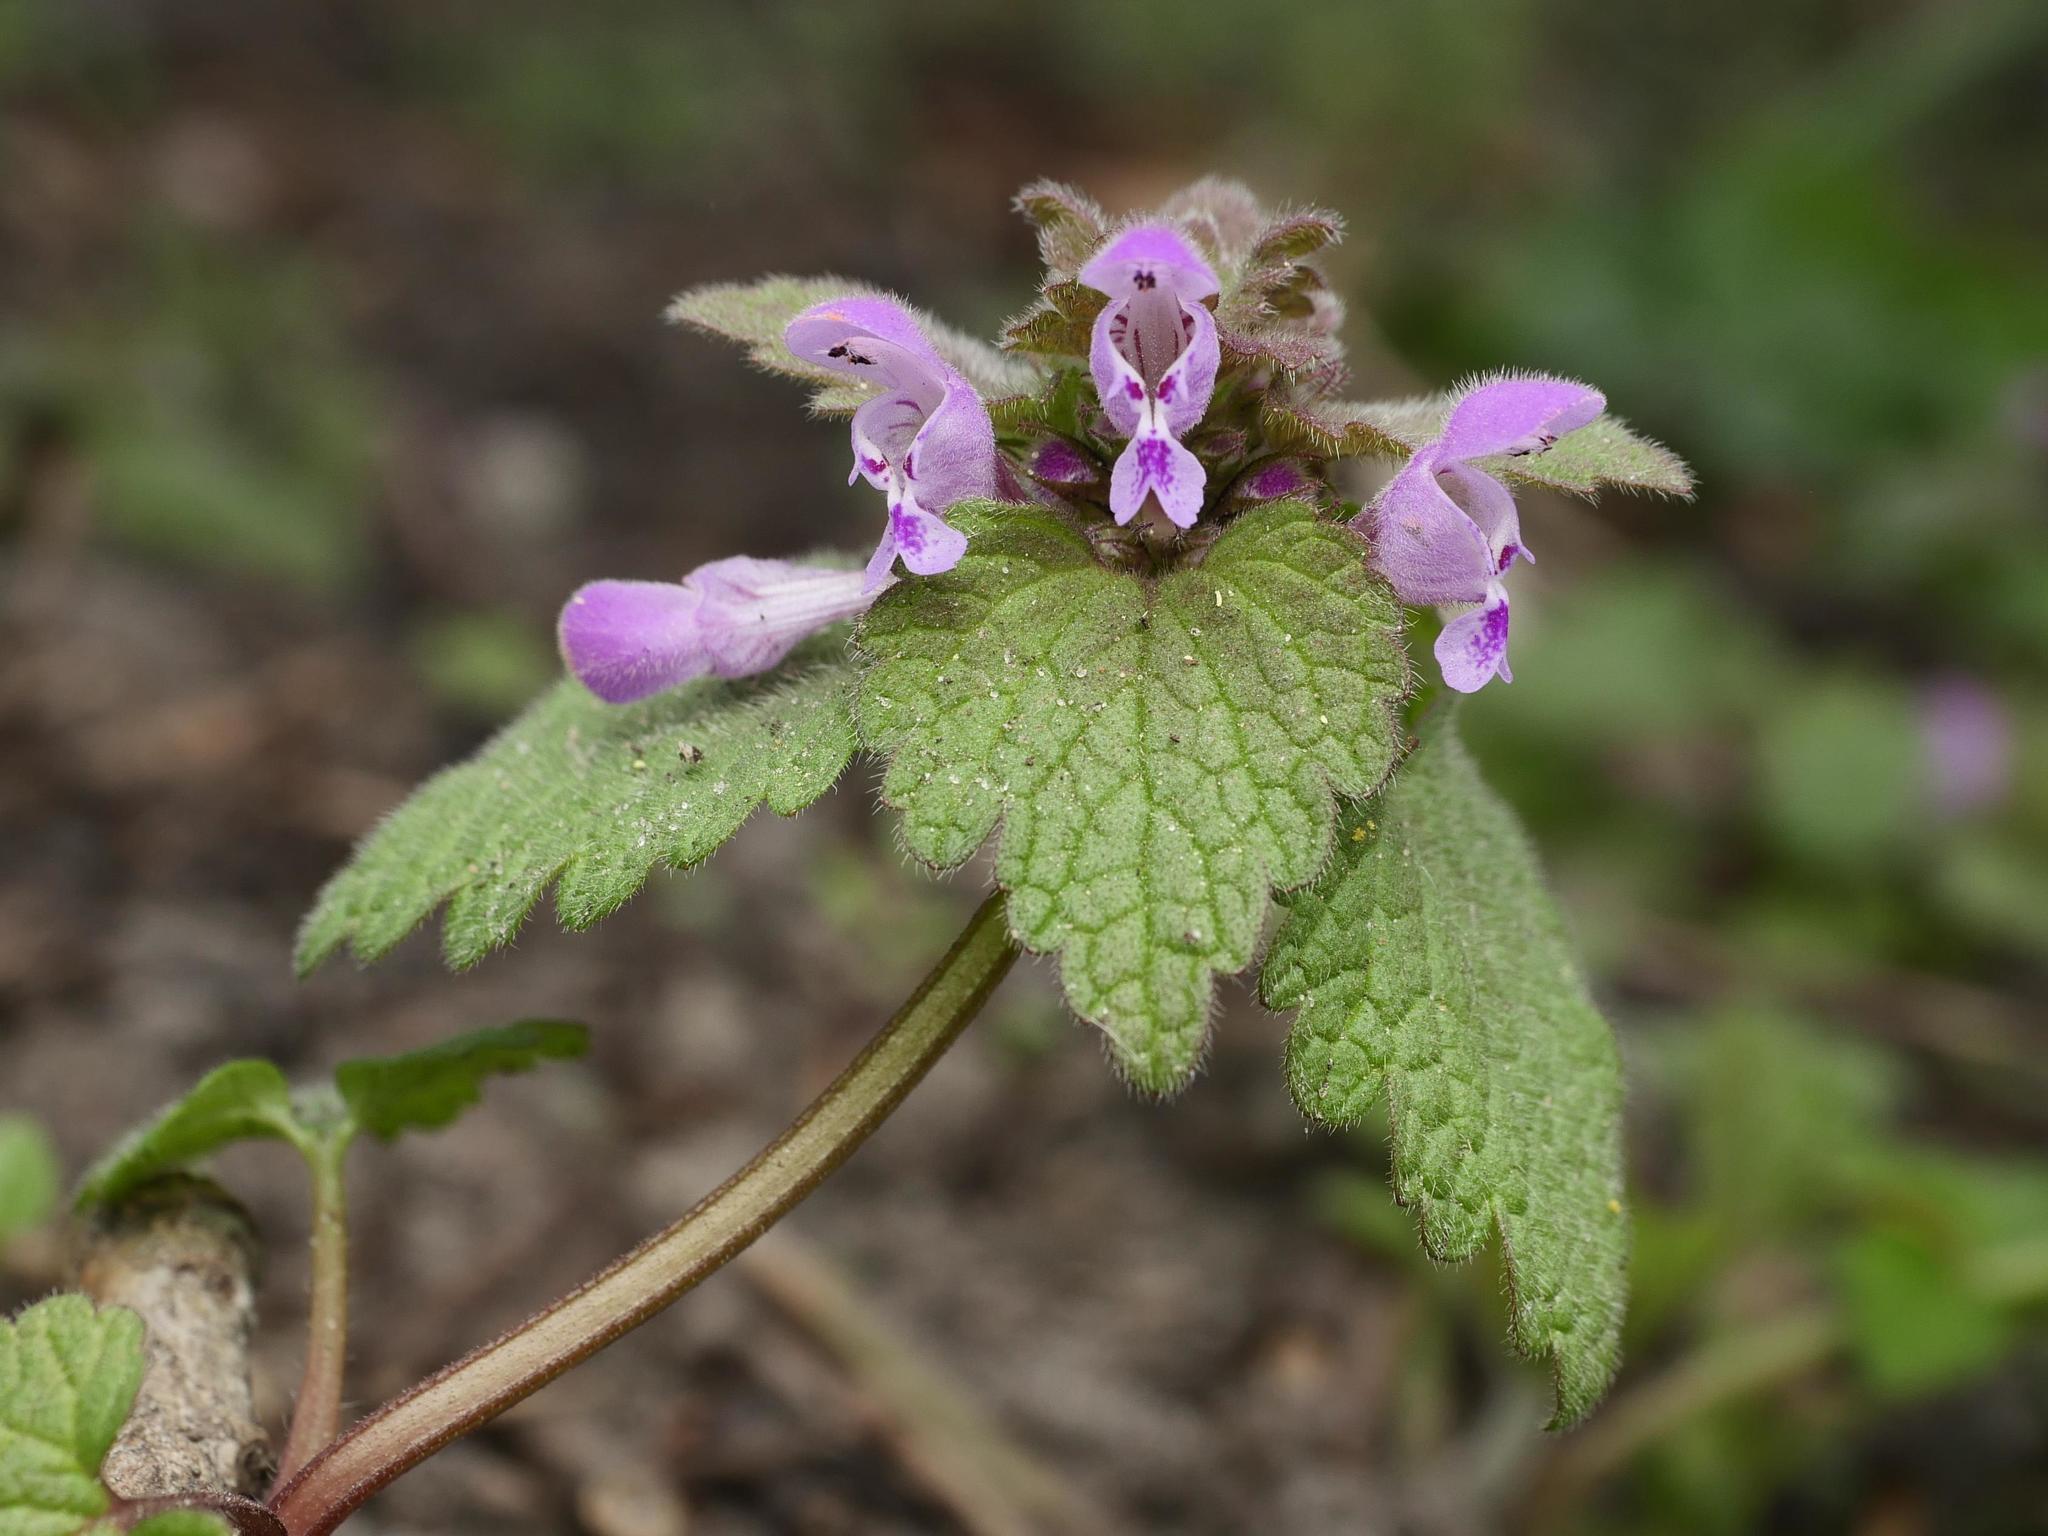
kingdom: Plantae
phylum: Tracheophyta
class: Magnoliopsida
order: Lamiales
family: Lamiaceae
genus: Lamium
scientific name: Lamium purpureum
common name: Red dead-nettle
